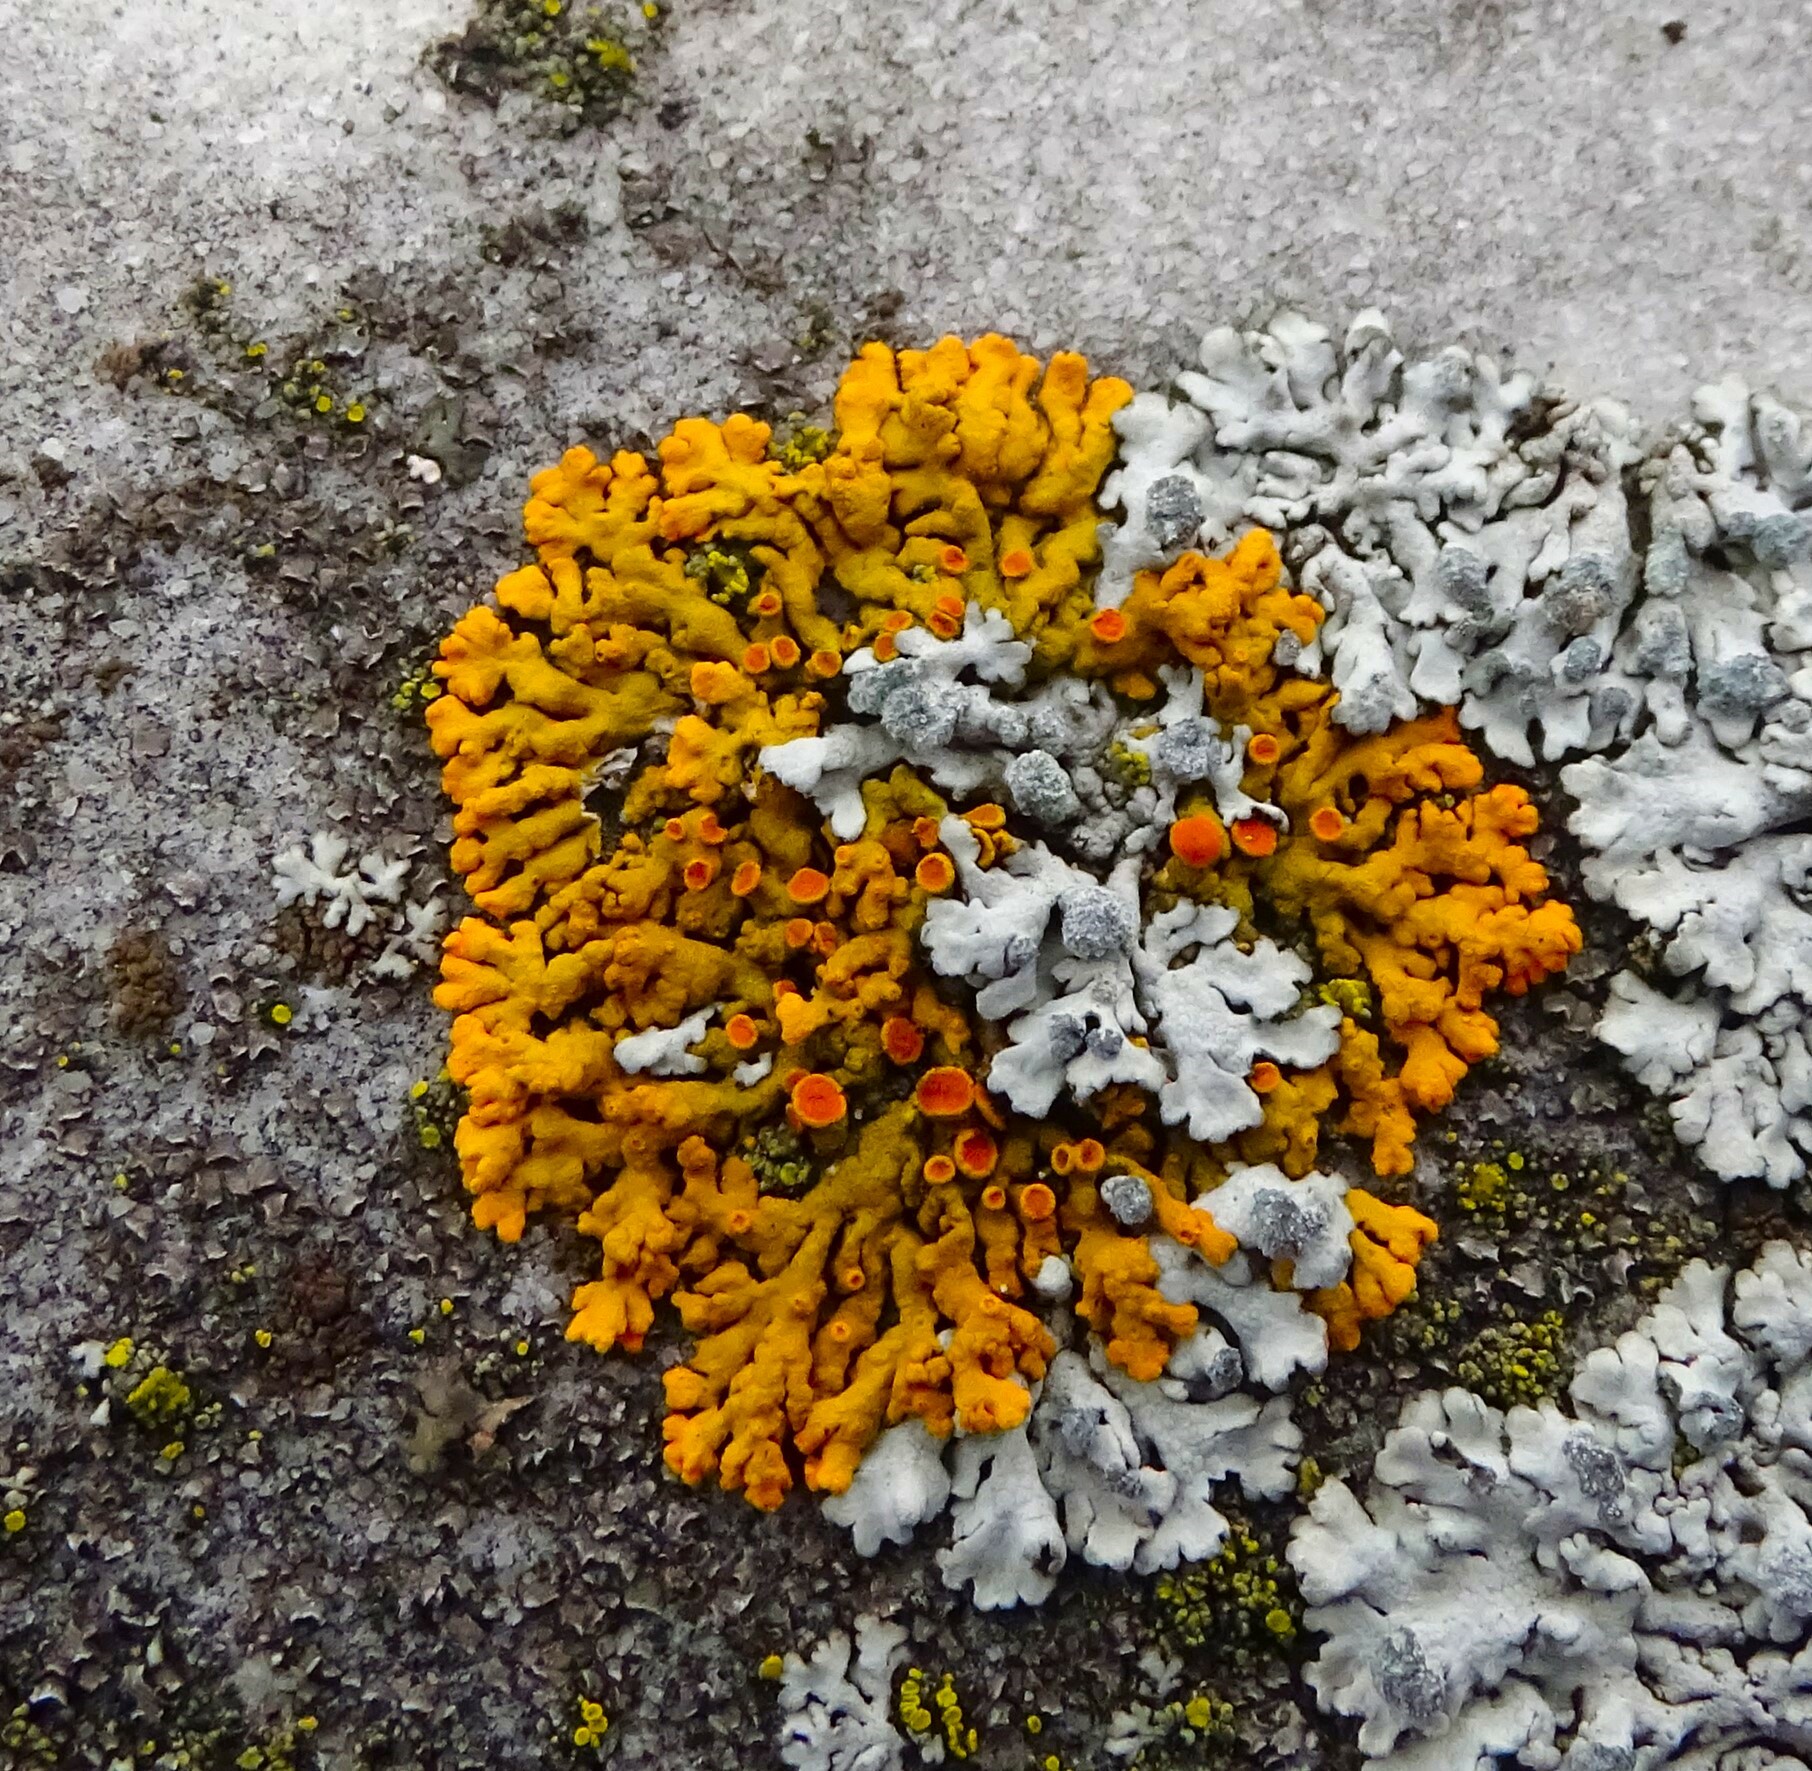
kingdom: Fungi
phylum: Ascomycota
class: Lecanoromycetes
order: Teloschistales
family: Teloschistaceae
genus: Xanthoria
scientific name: Xanthoria elegans
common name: Elegant sunburst lichen
